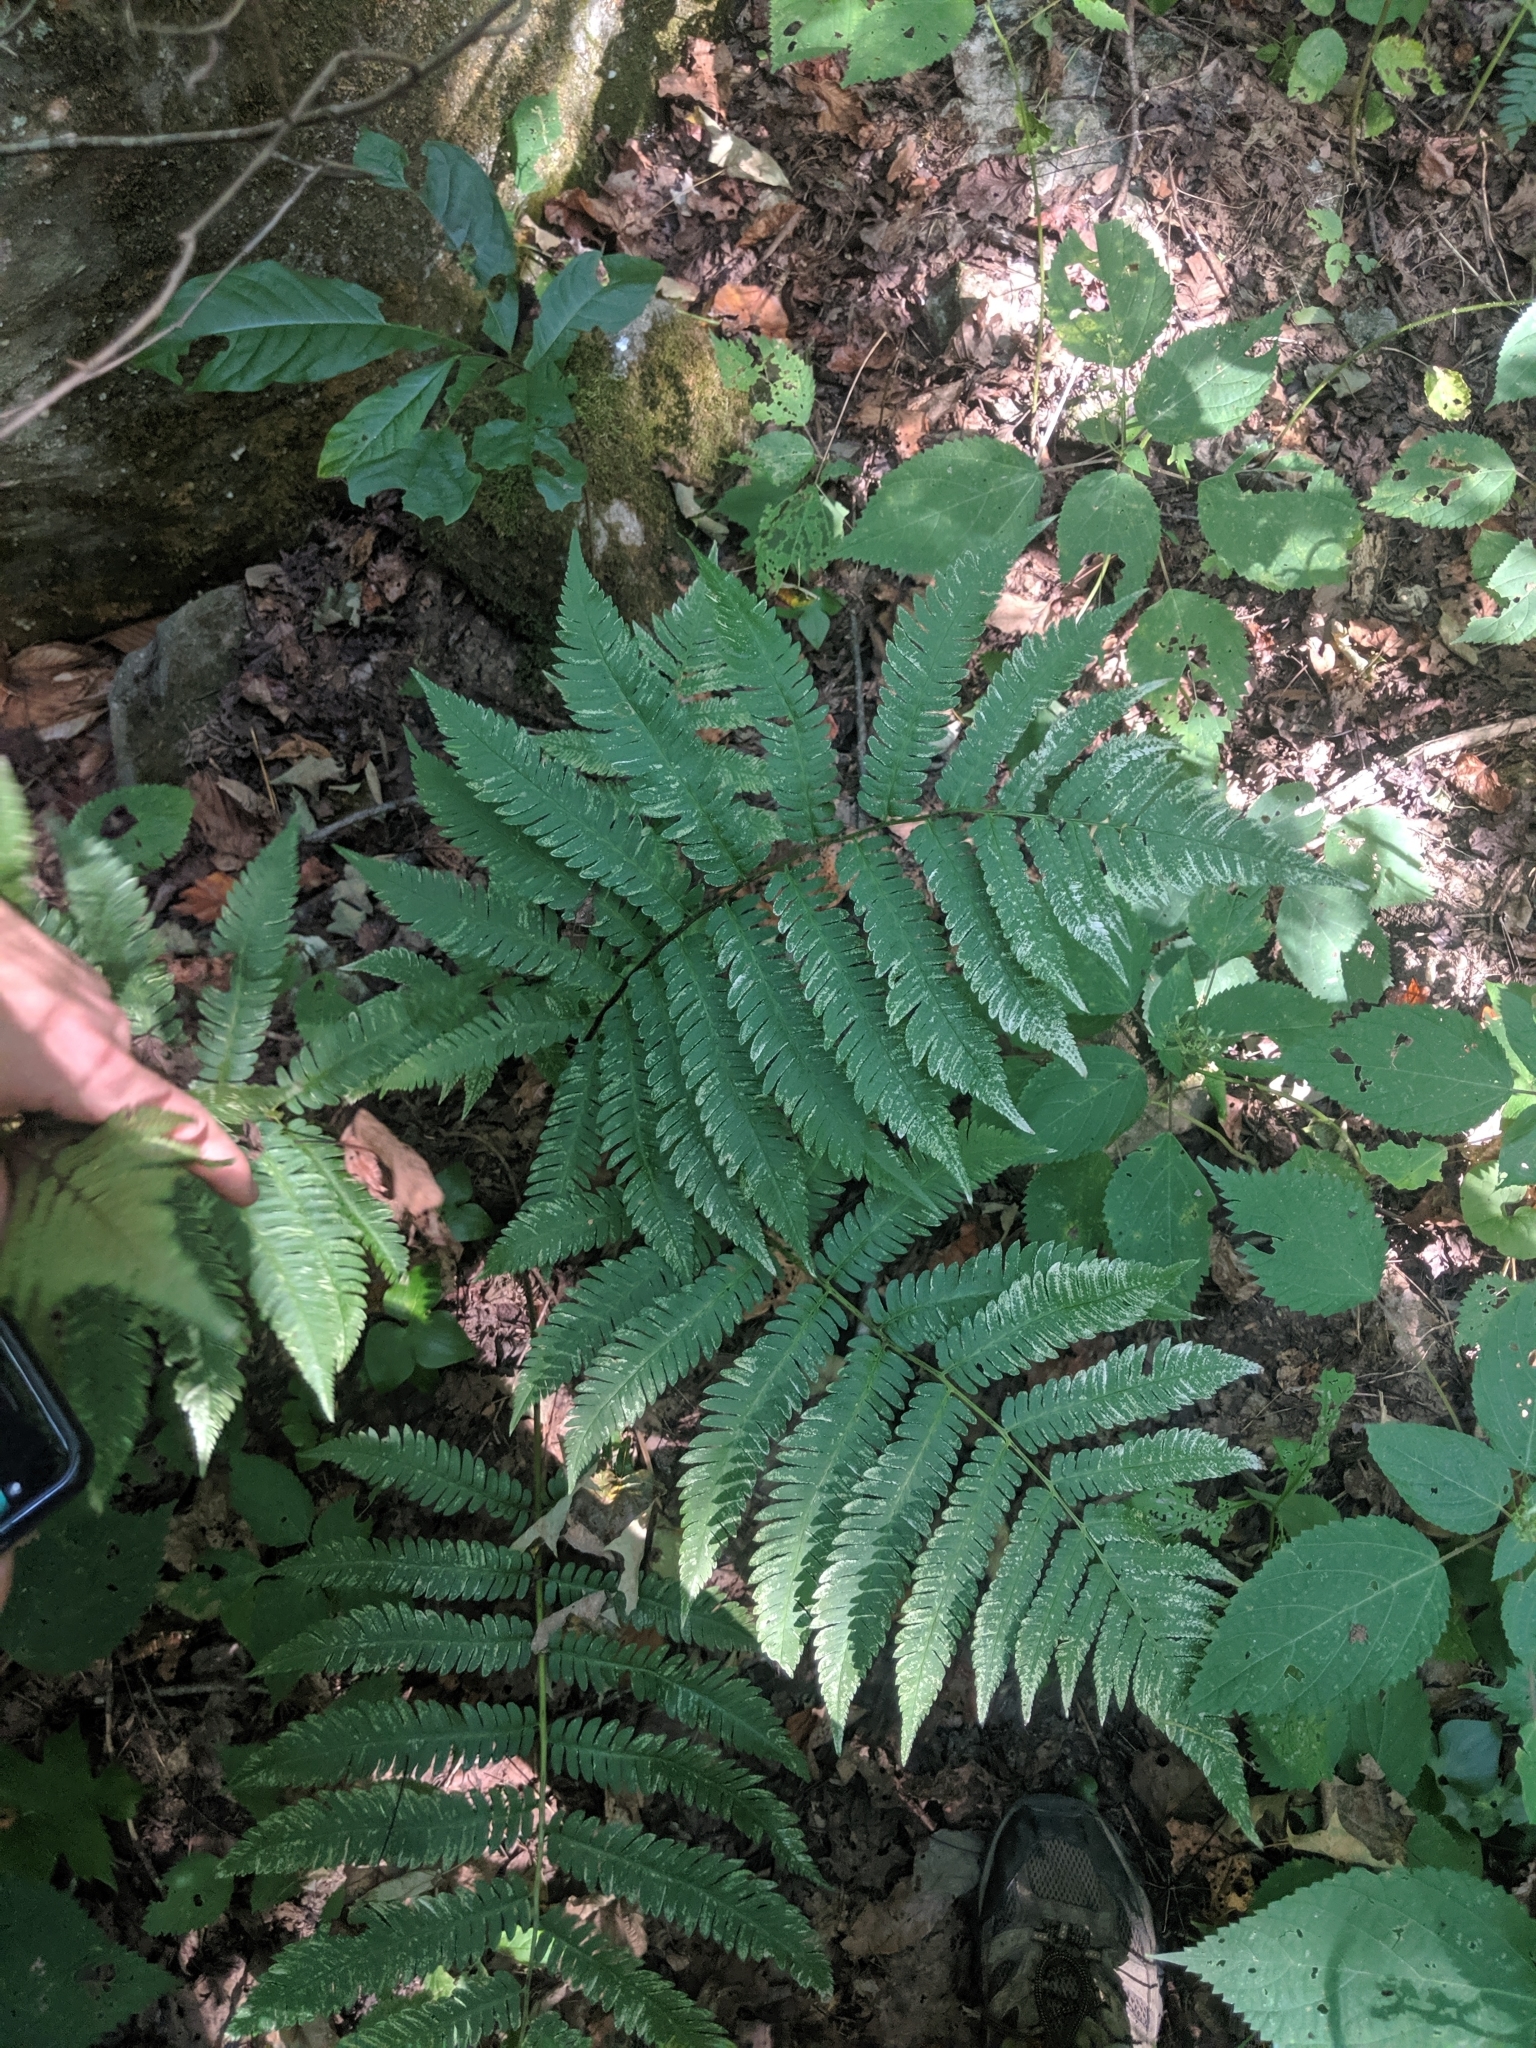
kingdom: Plantae
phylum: Tracheophyta
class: Polypodiopsida
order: Polypodiales
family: Dryopteridaceae
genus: Dryopteris
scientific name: Dryopteris goldieana
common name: Goldie's fern
